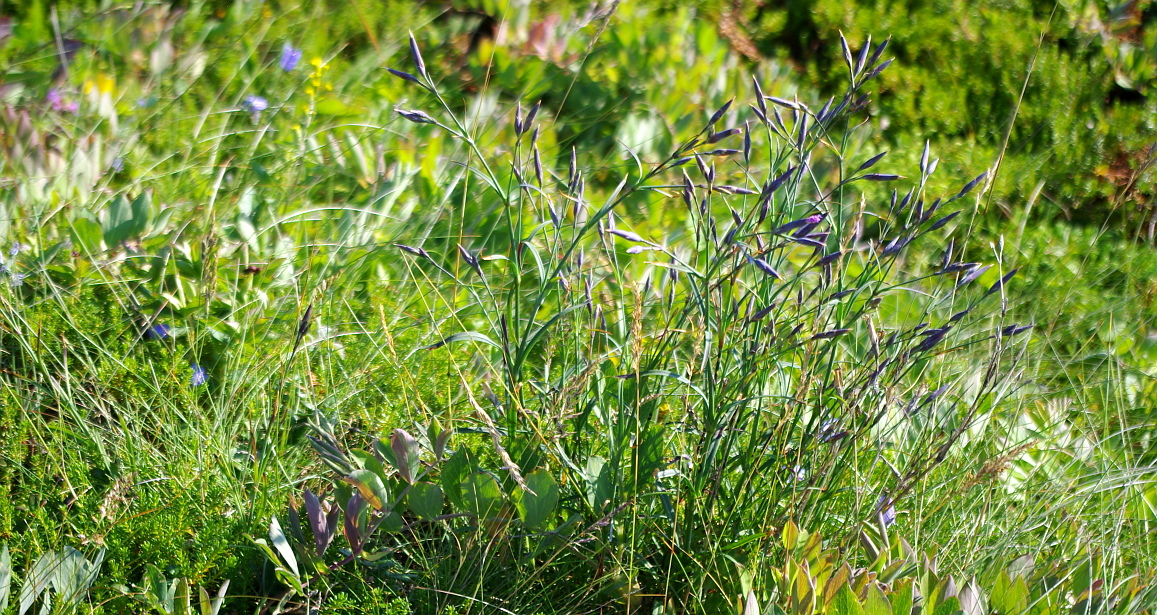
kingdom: Plantae
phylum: Tracheophyta
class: Magnoliopsida
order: Caryophyllales
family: Caryophyllaceae
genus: Dianthus
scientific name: Dianthus superbus
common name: Fringed pink
